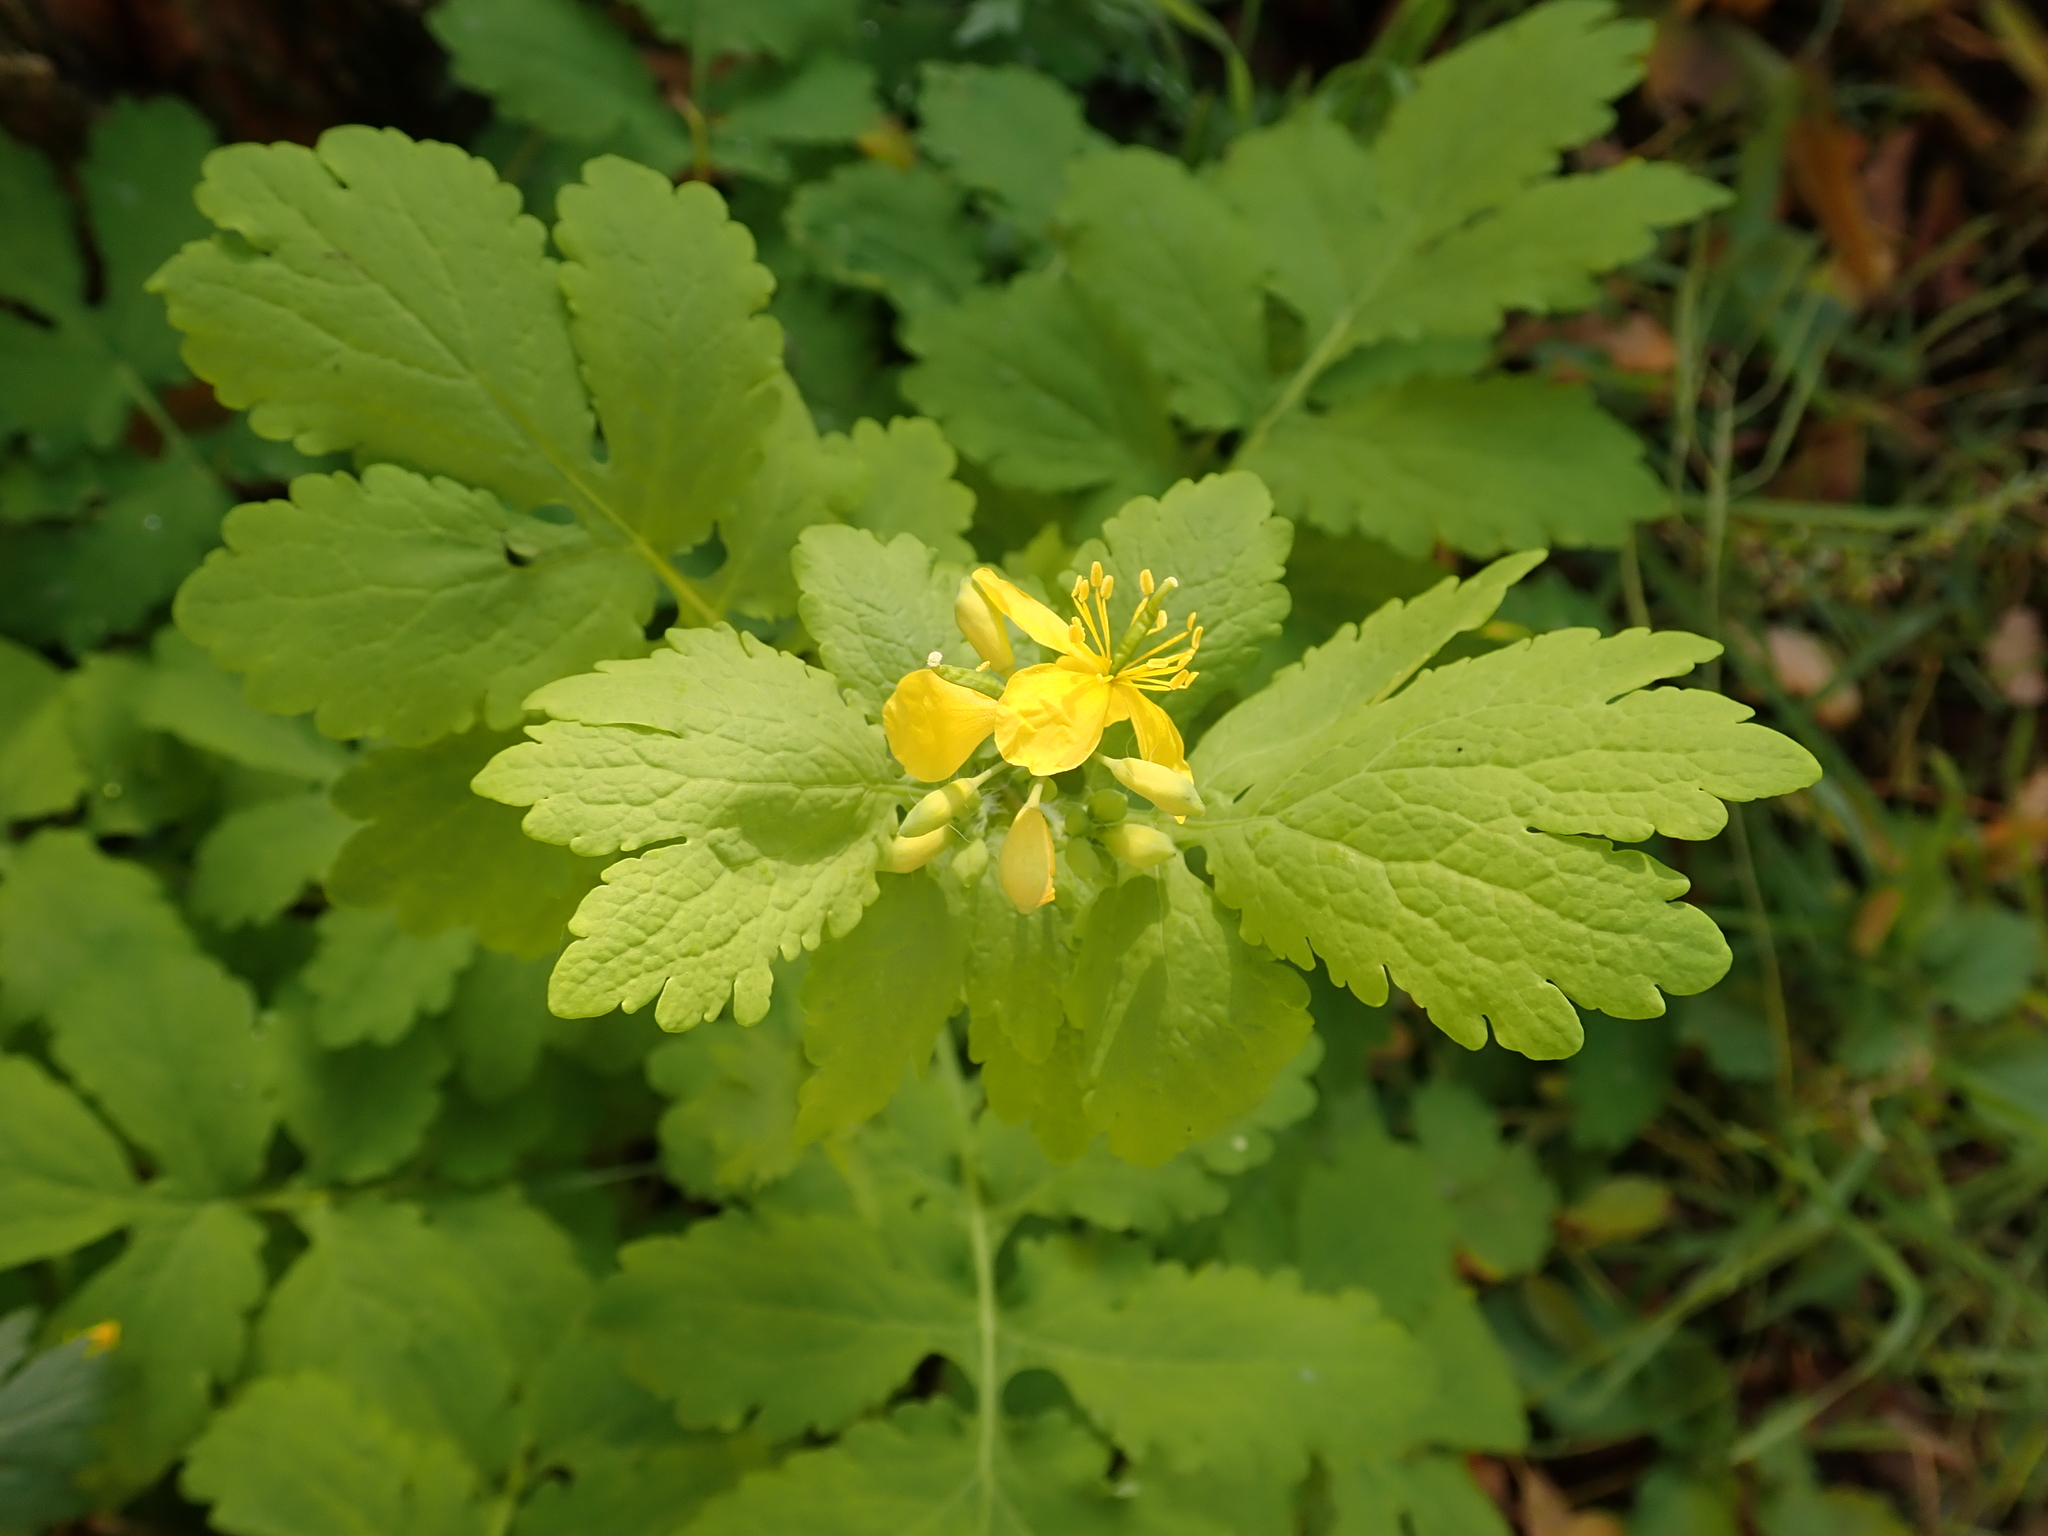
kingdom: Plantae
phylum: Tracheophyta
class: Magnoliopsida
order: Ranunculales
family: Papaveraceae
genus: Chelidonium
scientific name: Chelidonium majus
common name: Greater celandine
